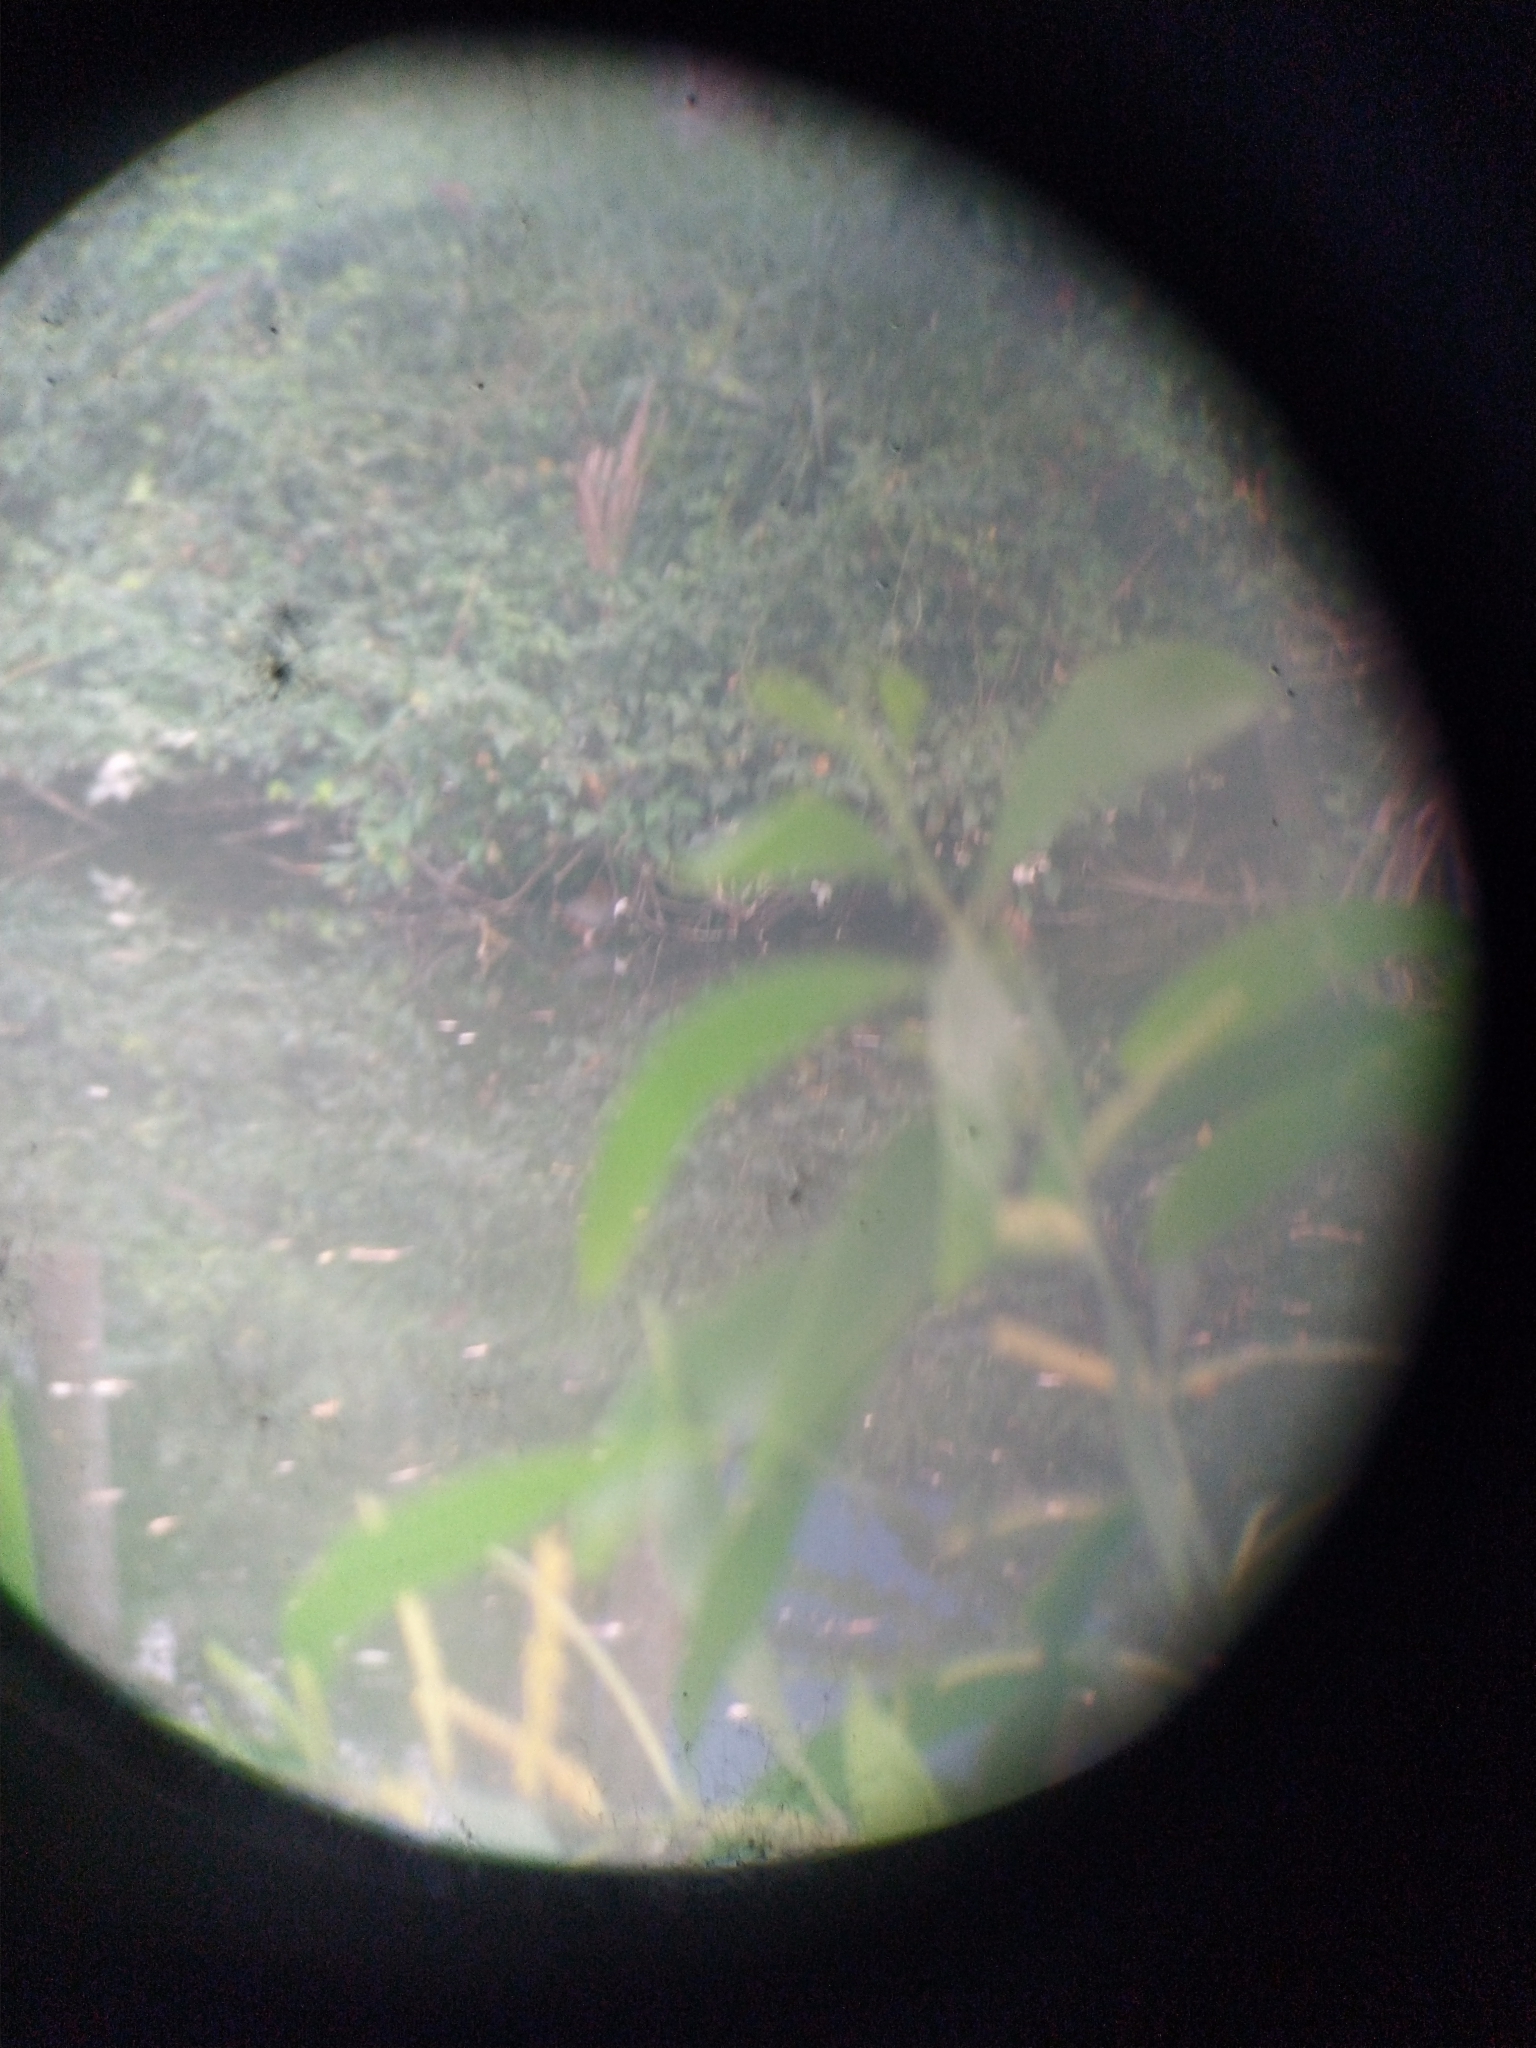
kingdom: Animalia
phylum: Chordata
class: Aves
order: Gruiformes
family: Rallidae
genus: Amaurornis
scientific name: Amaurornis phoenicurus
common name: White-breasted waterhen
